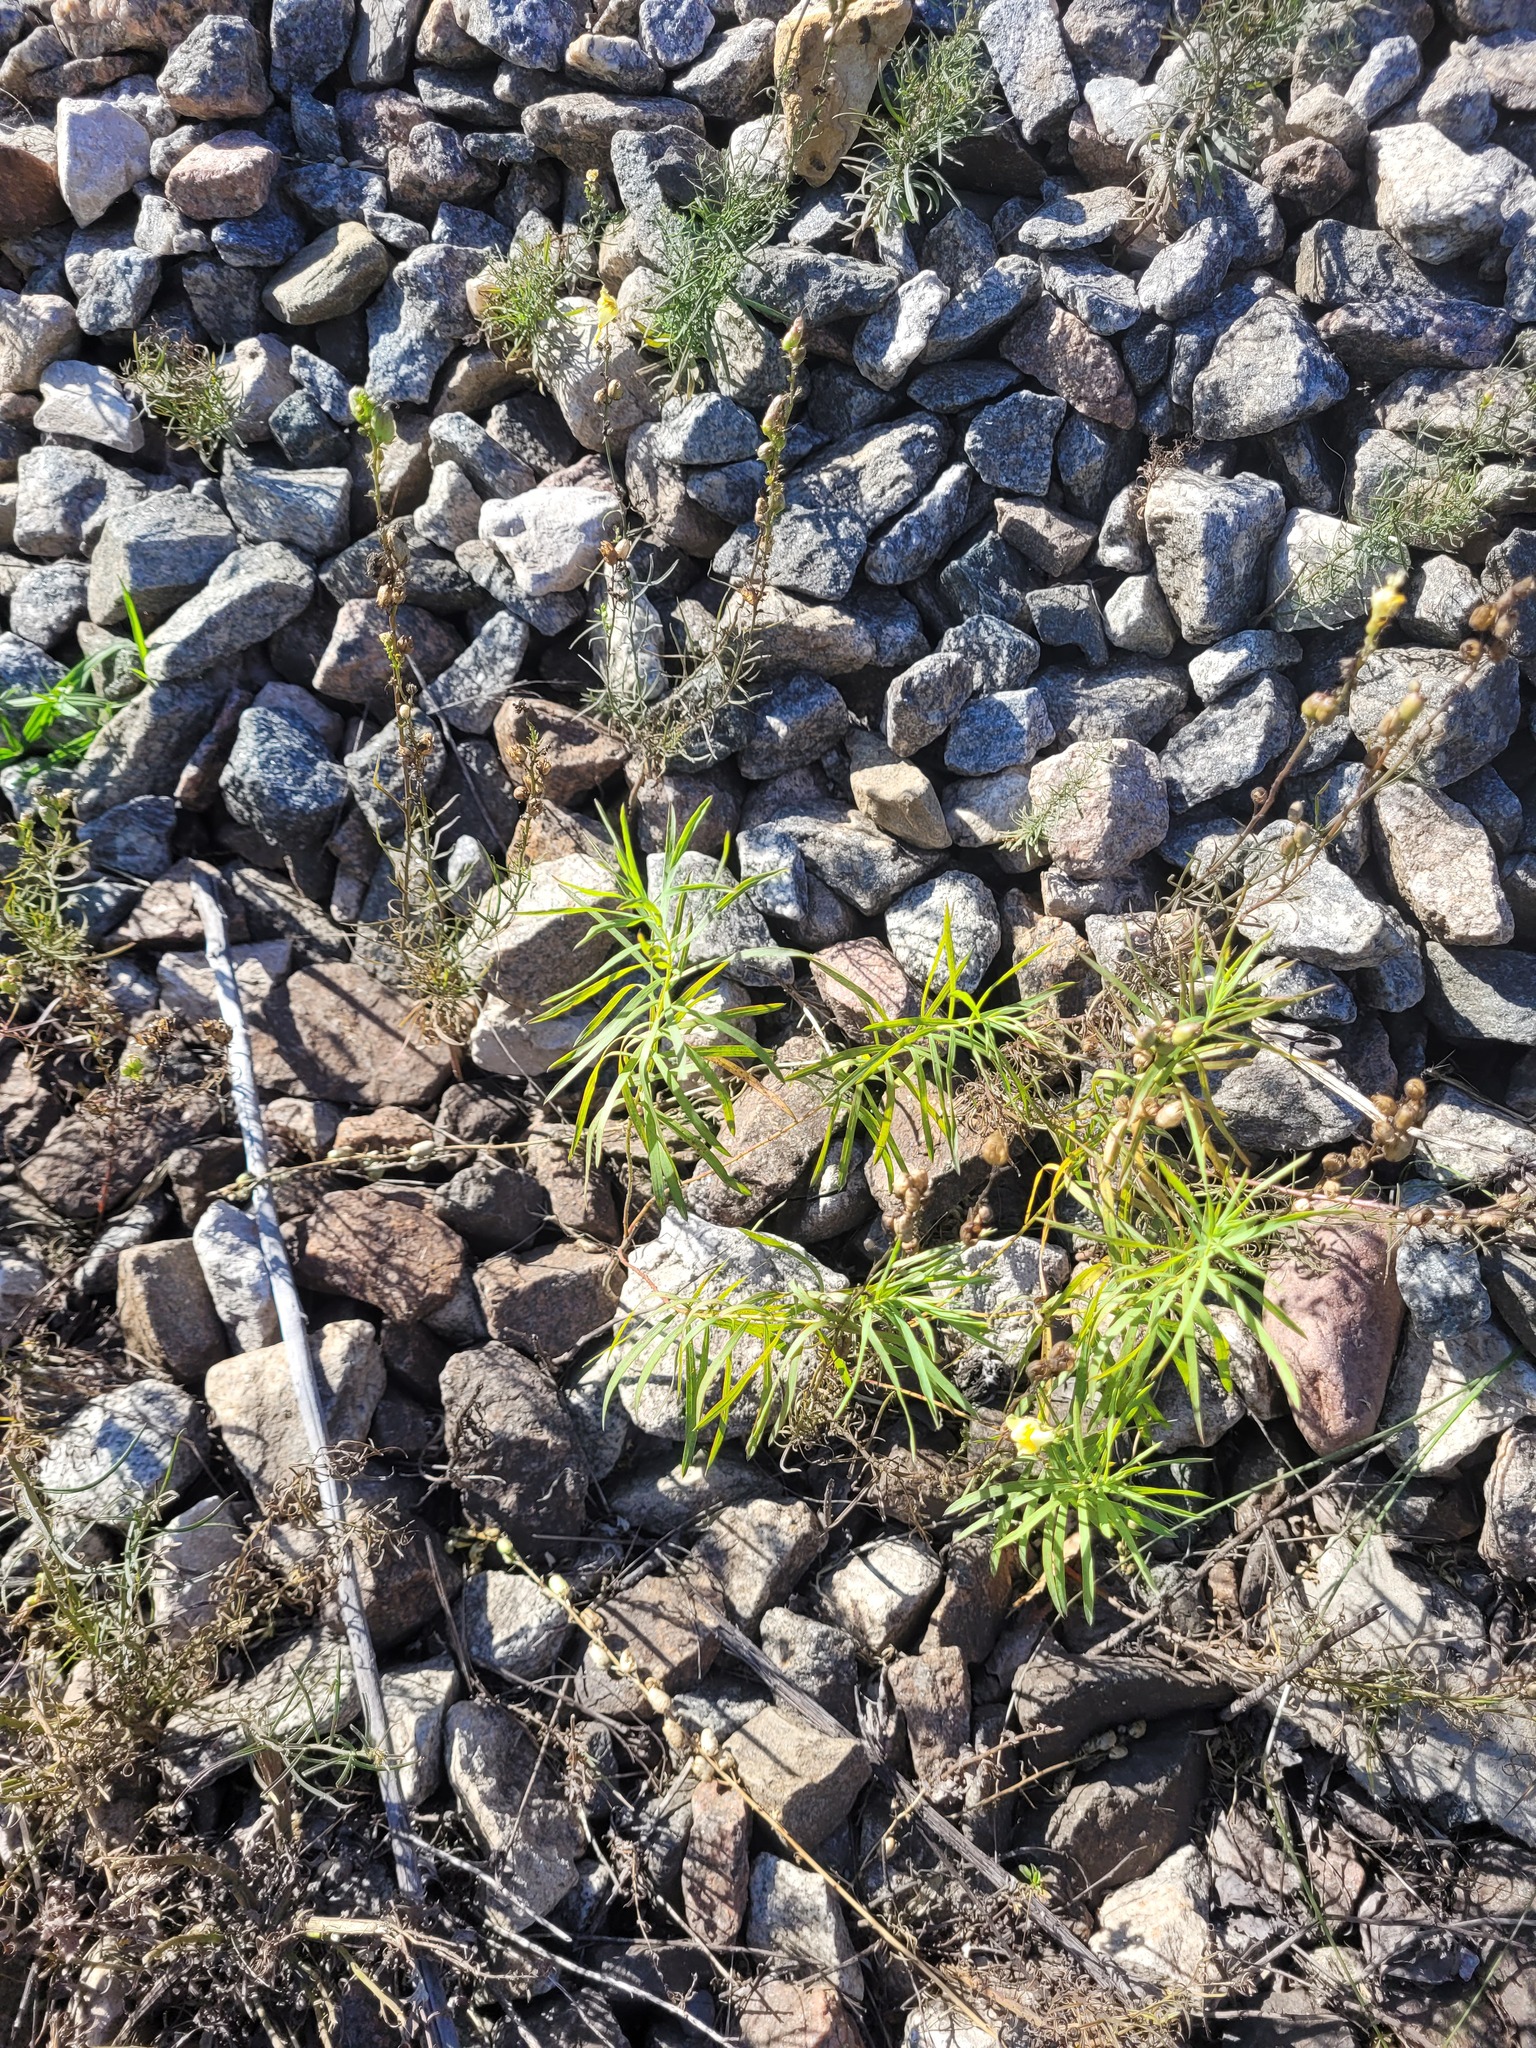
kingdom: Plantae
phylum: Tracheophyta
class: Magnoliopsida
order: Malpighiales
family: Euphorbiaceae
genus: Euphorbia
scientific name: Euphorbia virgata
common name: Leafy spurge
